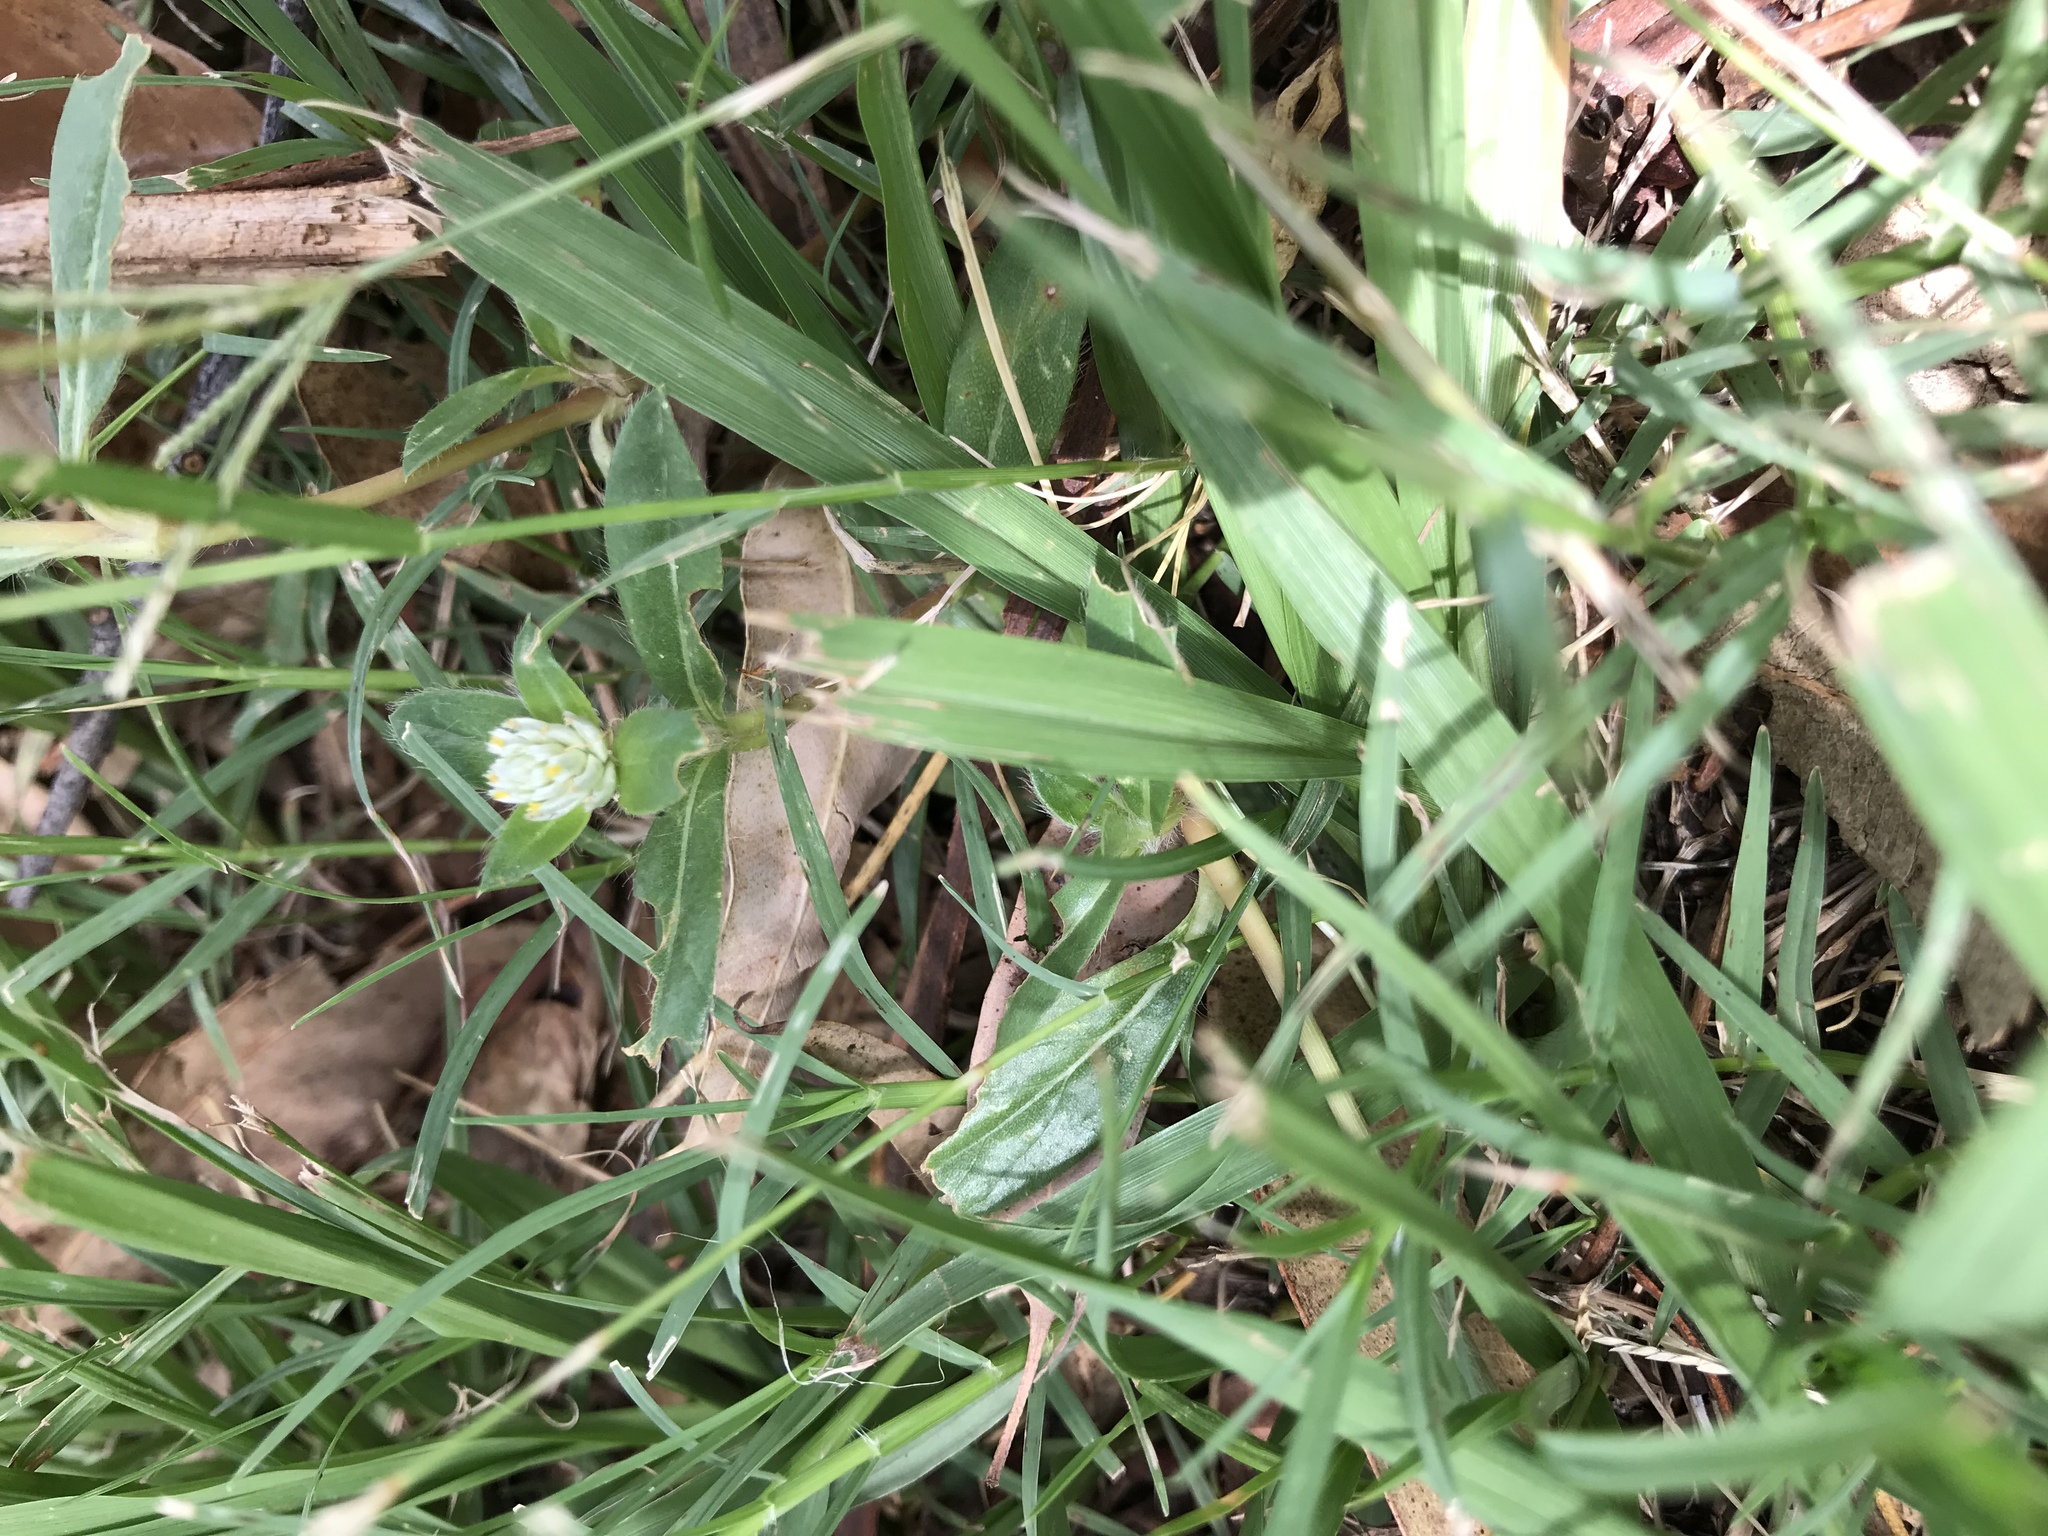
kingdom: Plantae
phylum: Tracheophyta
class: Magnoliopsida
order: Caryophyllales
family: Amaranthaceae
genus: Gomphrena
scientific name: Gomphrena celosioides
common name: Gomphrena-weed
